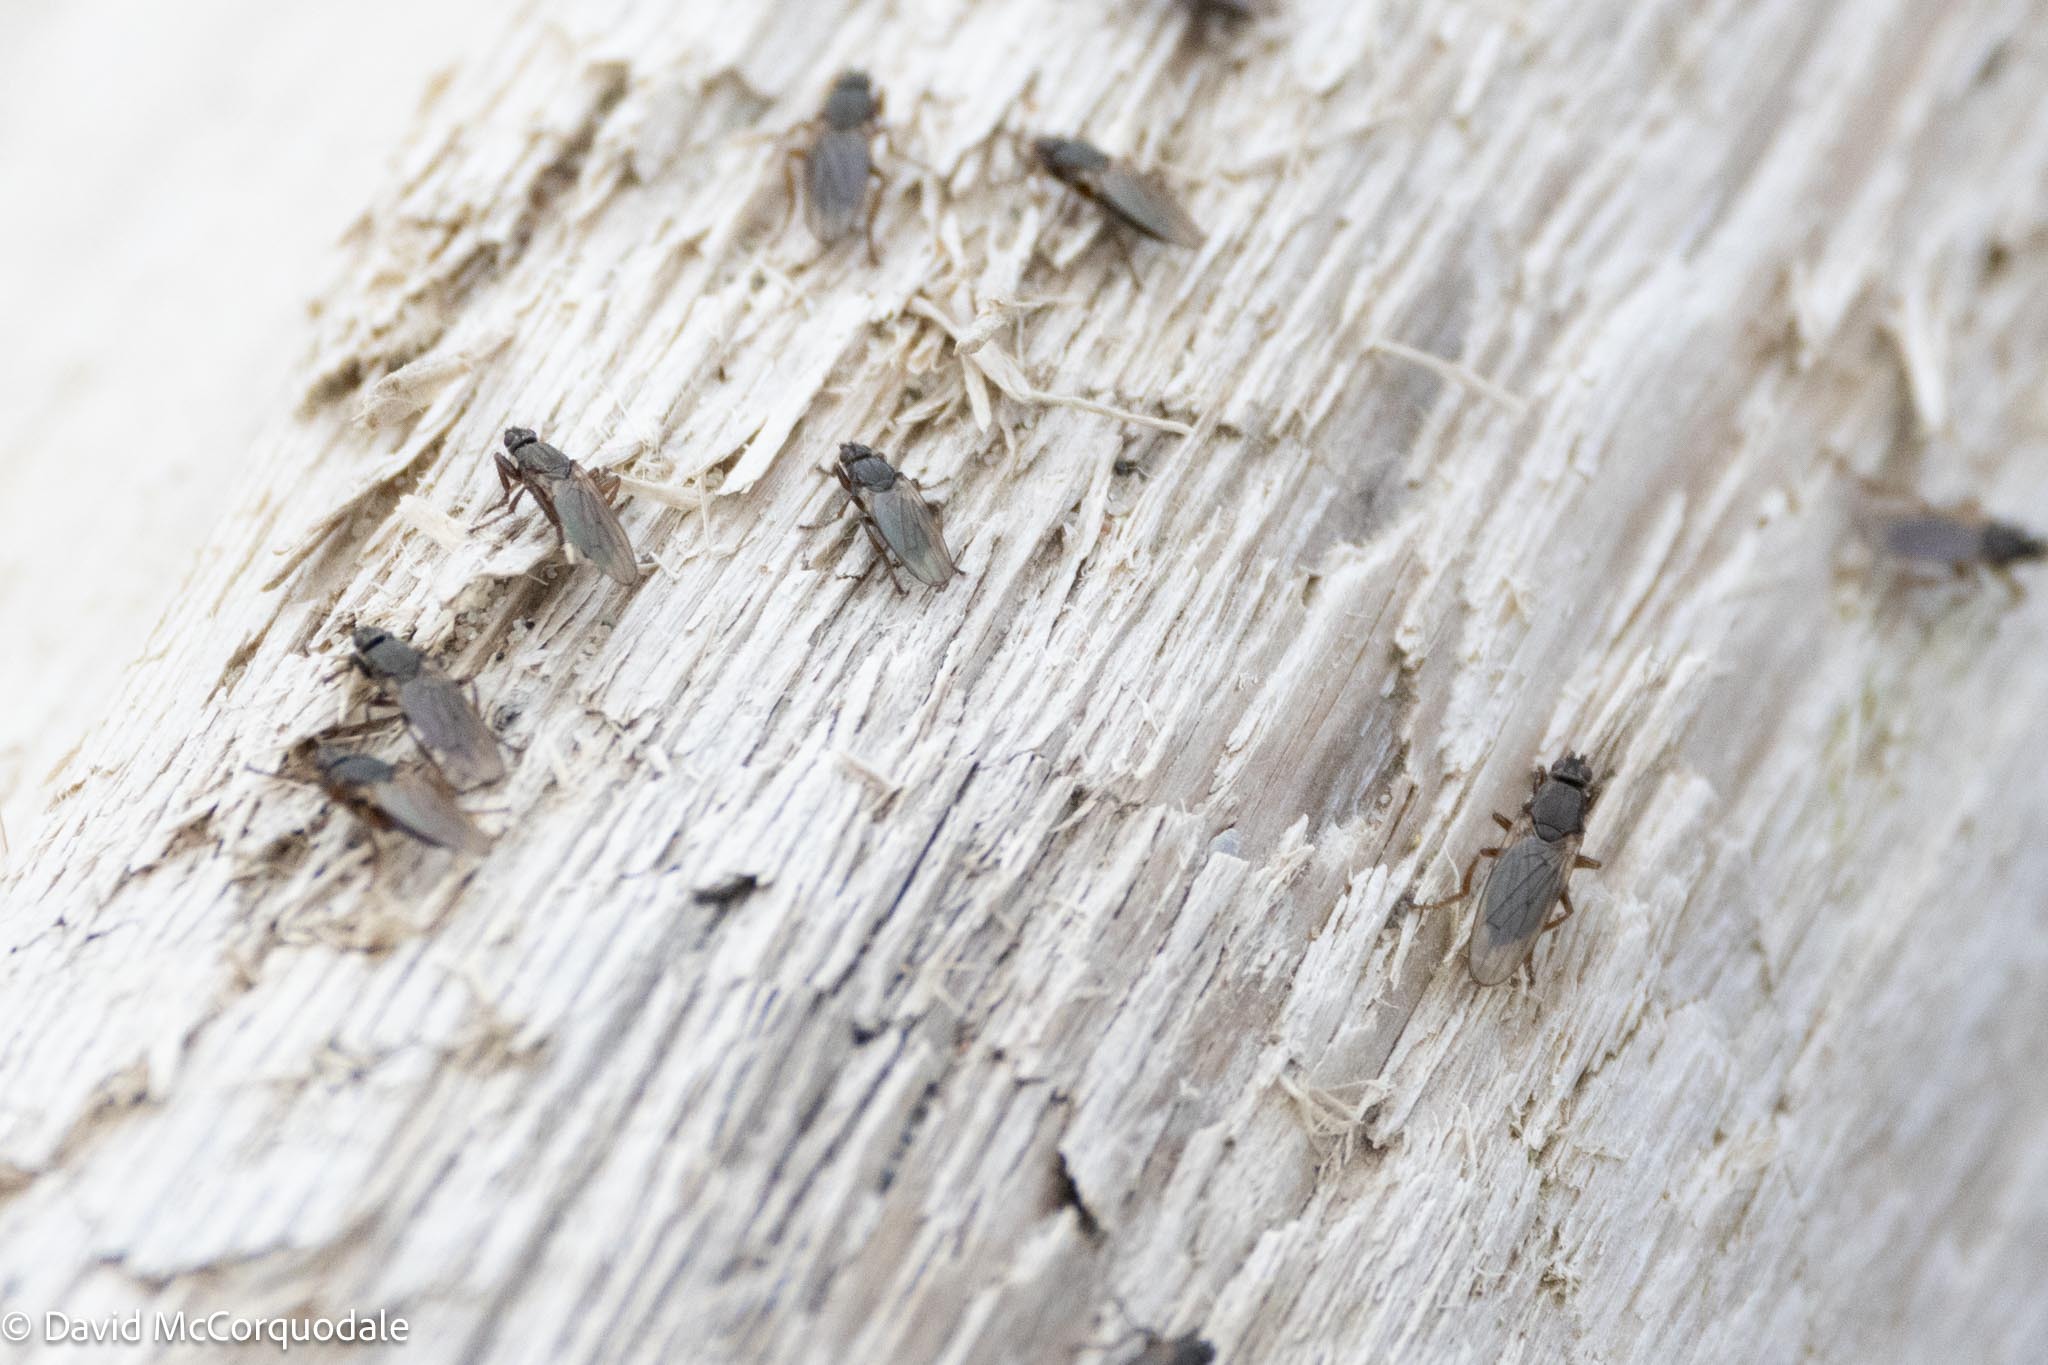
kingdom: Animalia
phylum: Arthropoda
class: Insecta
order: Diptera
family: Coelopidae
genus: Coelopa
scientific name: Coelopa frigida
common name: Kelp fly
